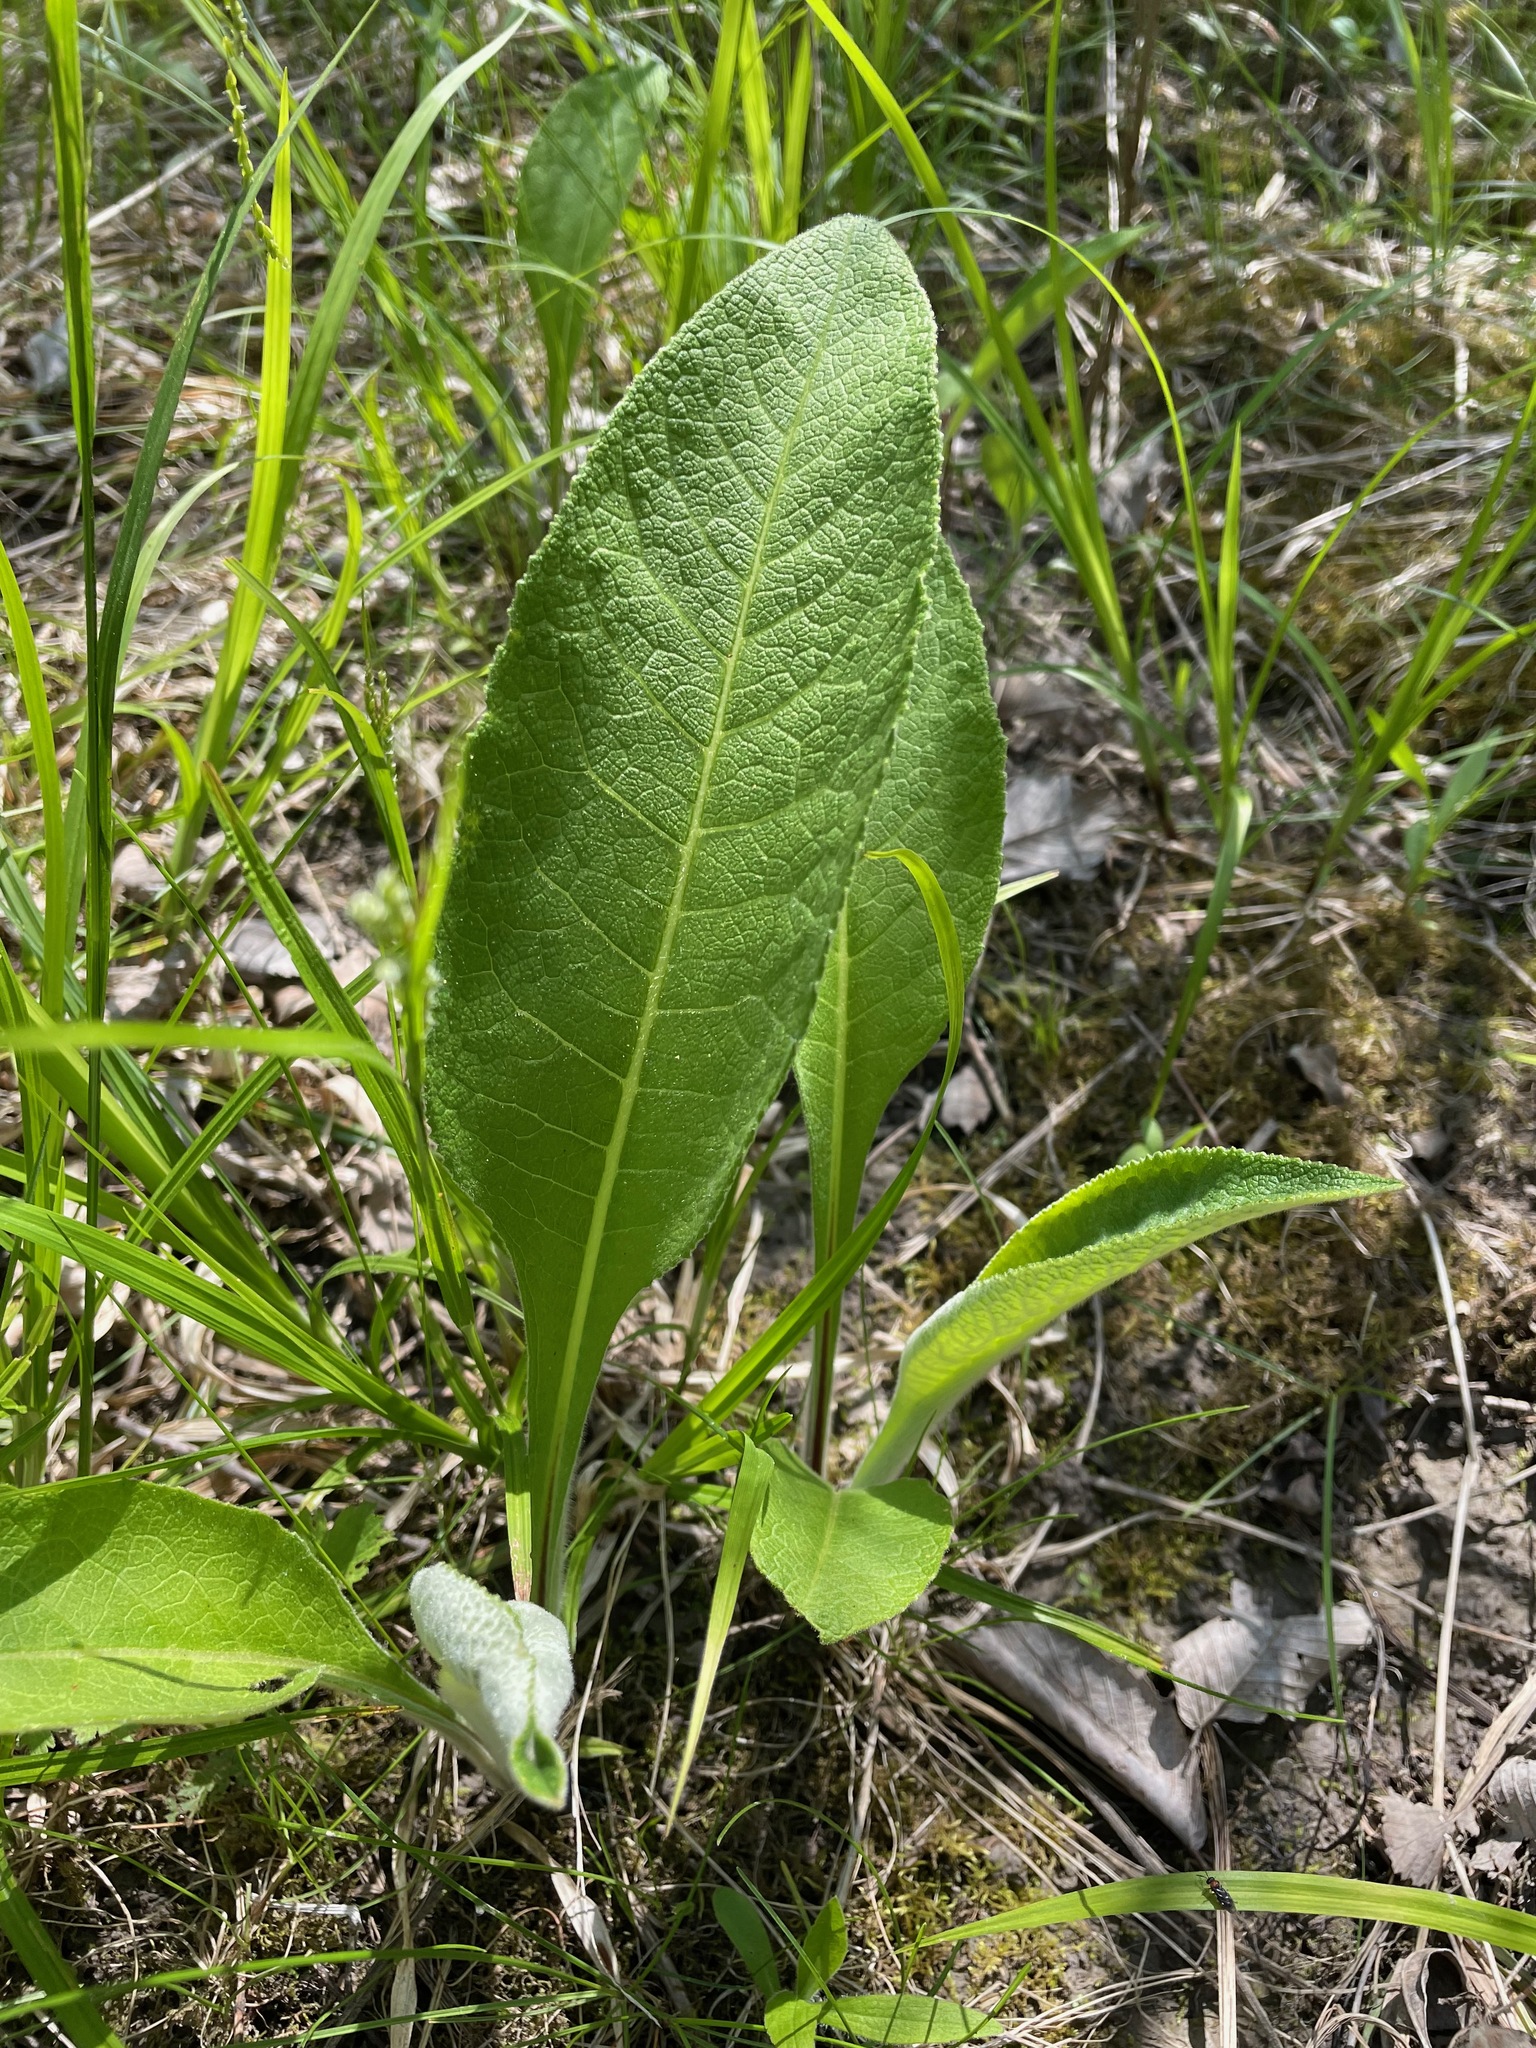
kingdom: Plantae
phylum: Tracheophyta
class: Magnoliopsida
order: Asterales
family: Asteraceae
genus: Inula
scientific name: Inula helenium
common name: Elecampane
